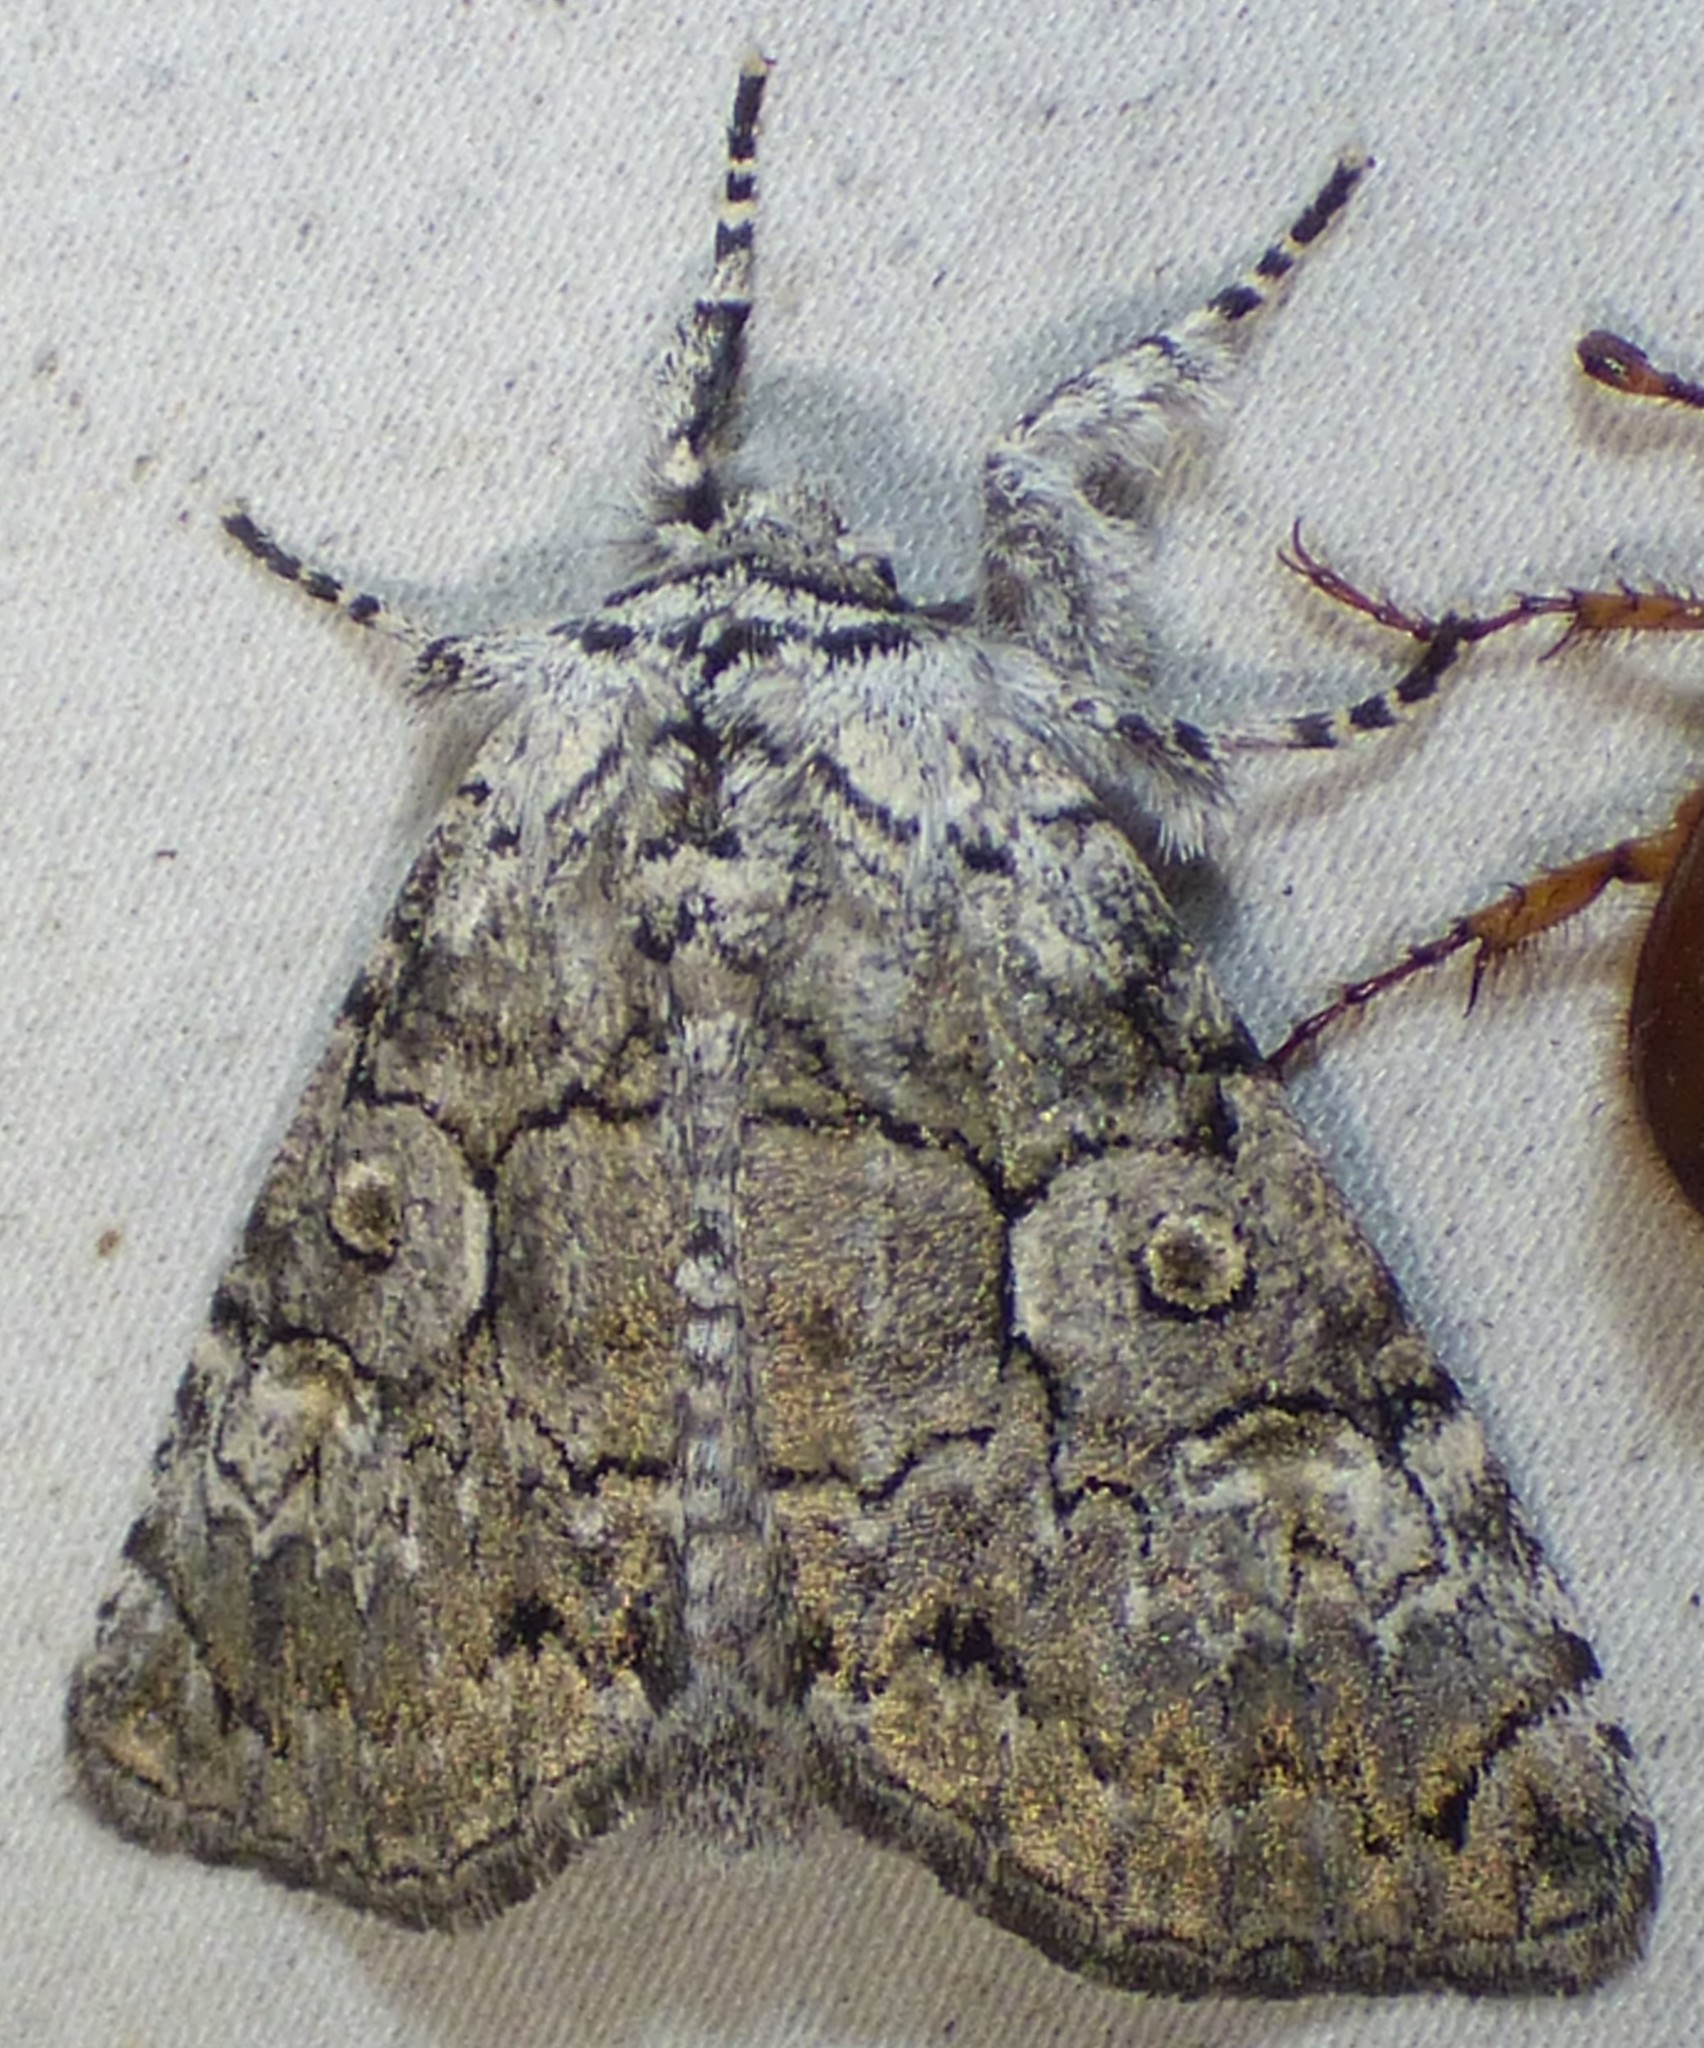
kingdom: Animalia
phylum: Arthropoda
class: Insecta
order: Lepidoptera
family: Noctuidae
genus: Charadra
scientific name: Charadra deridens
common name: Marbled tuffet
